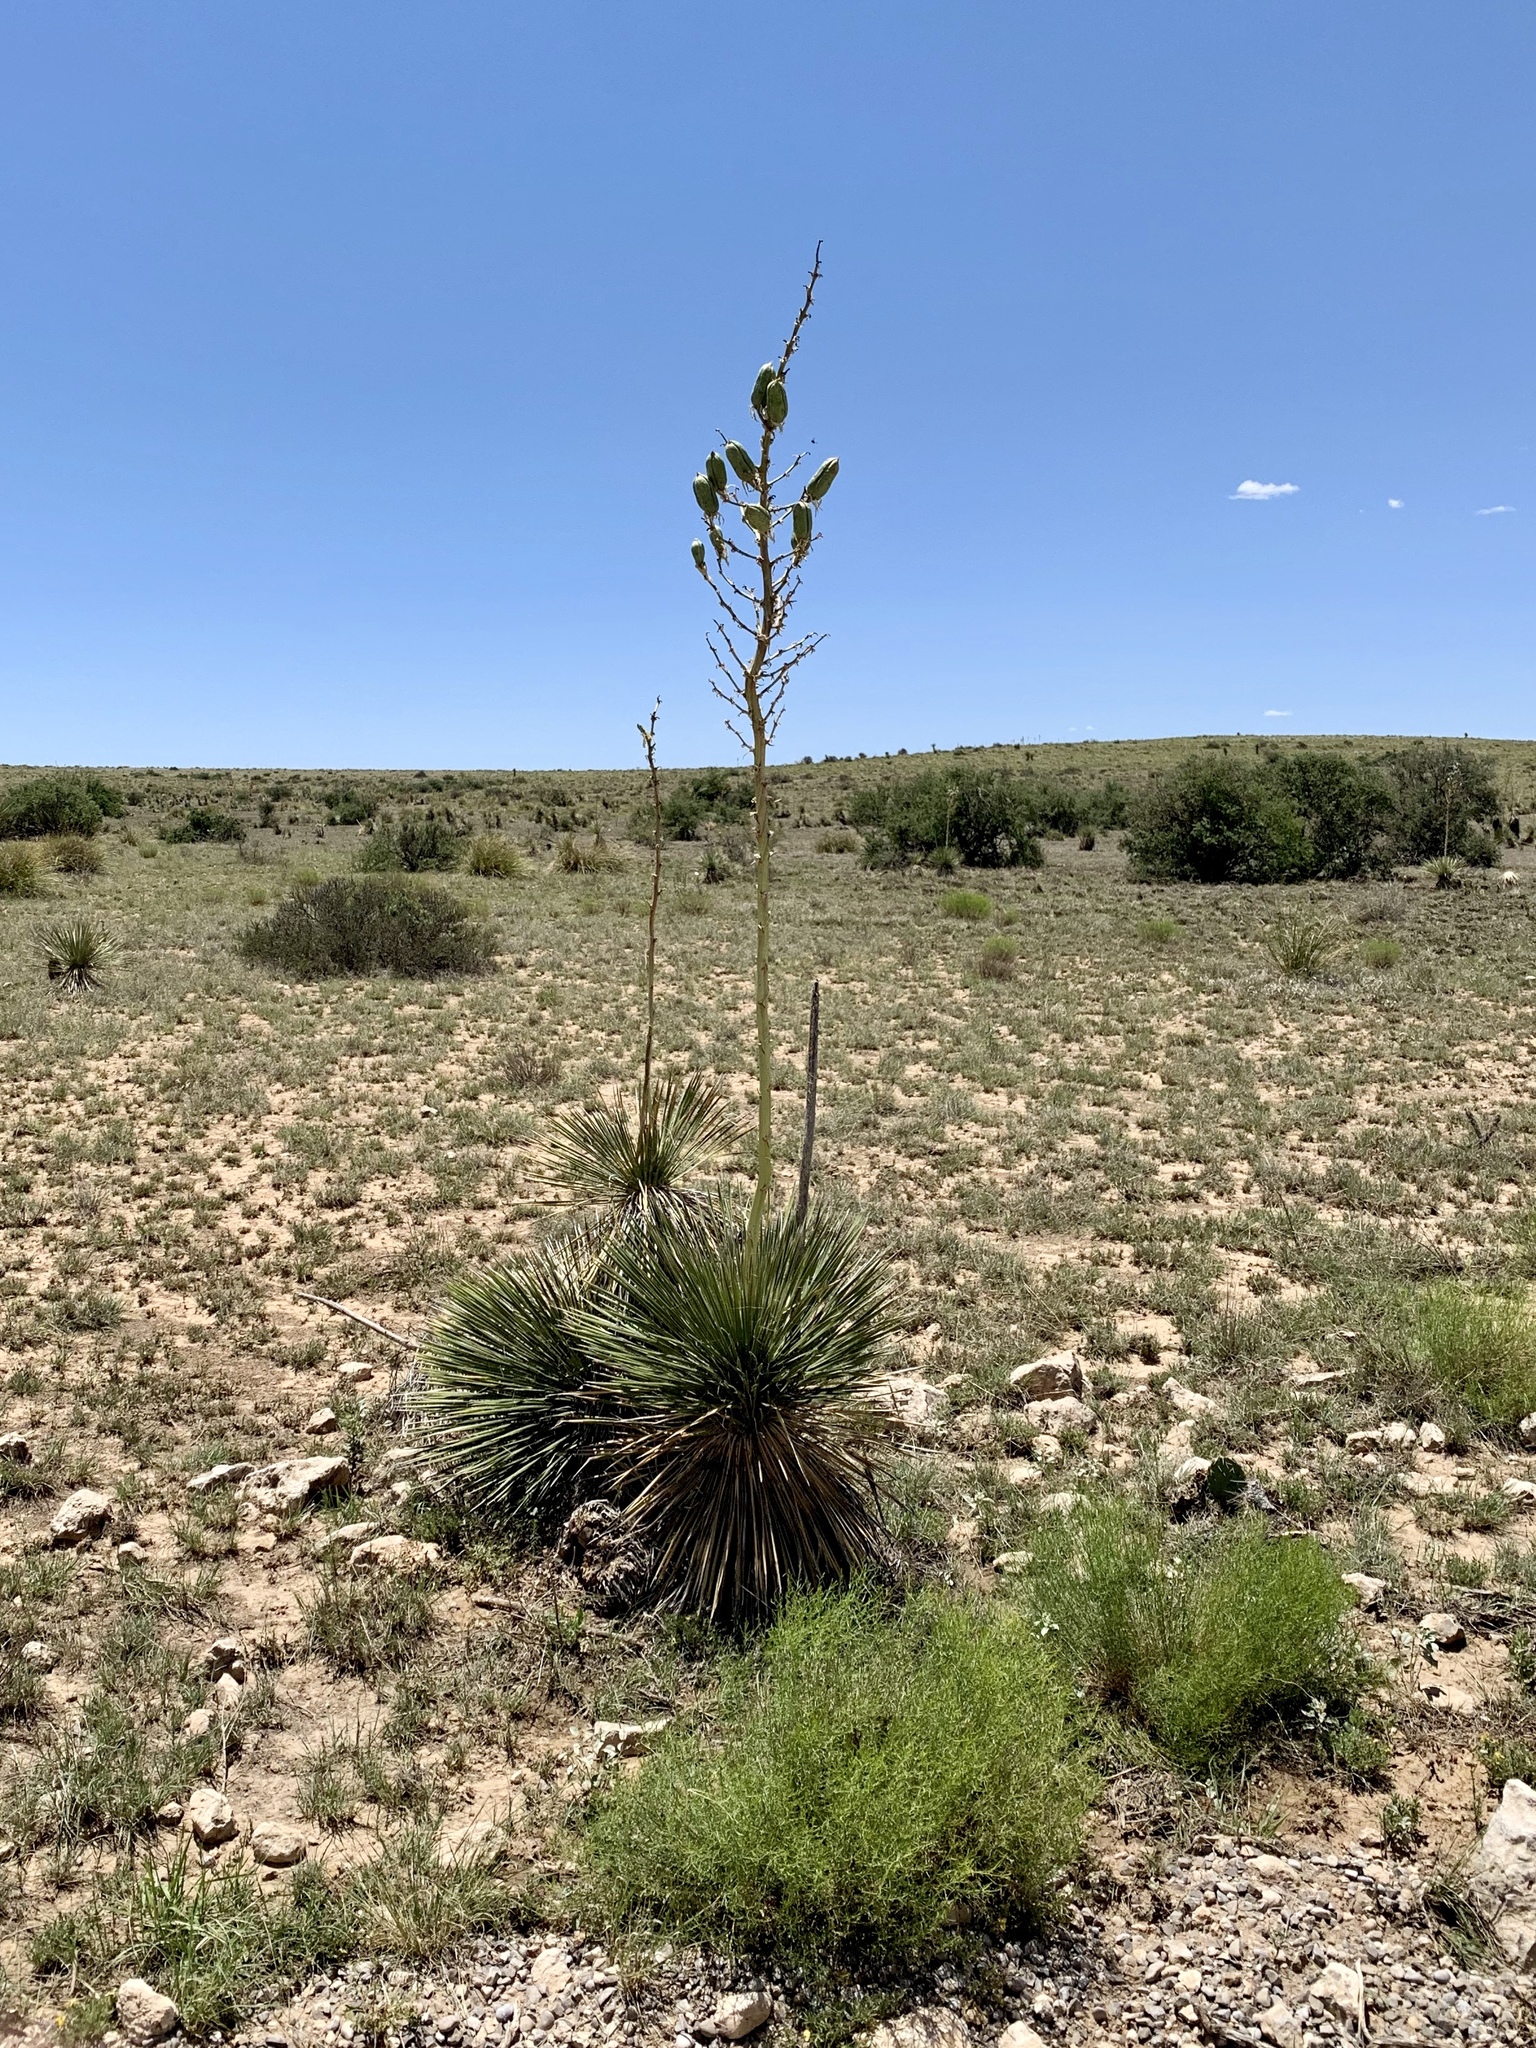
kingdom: Plantae
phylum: Tracheophyta
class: Liliopsida
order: Asparagales
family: Asparagaceae
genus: Yucca
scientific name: Yucca elata
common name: Palmella
